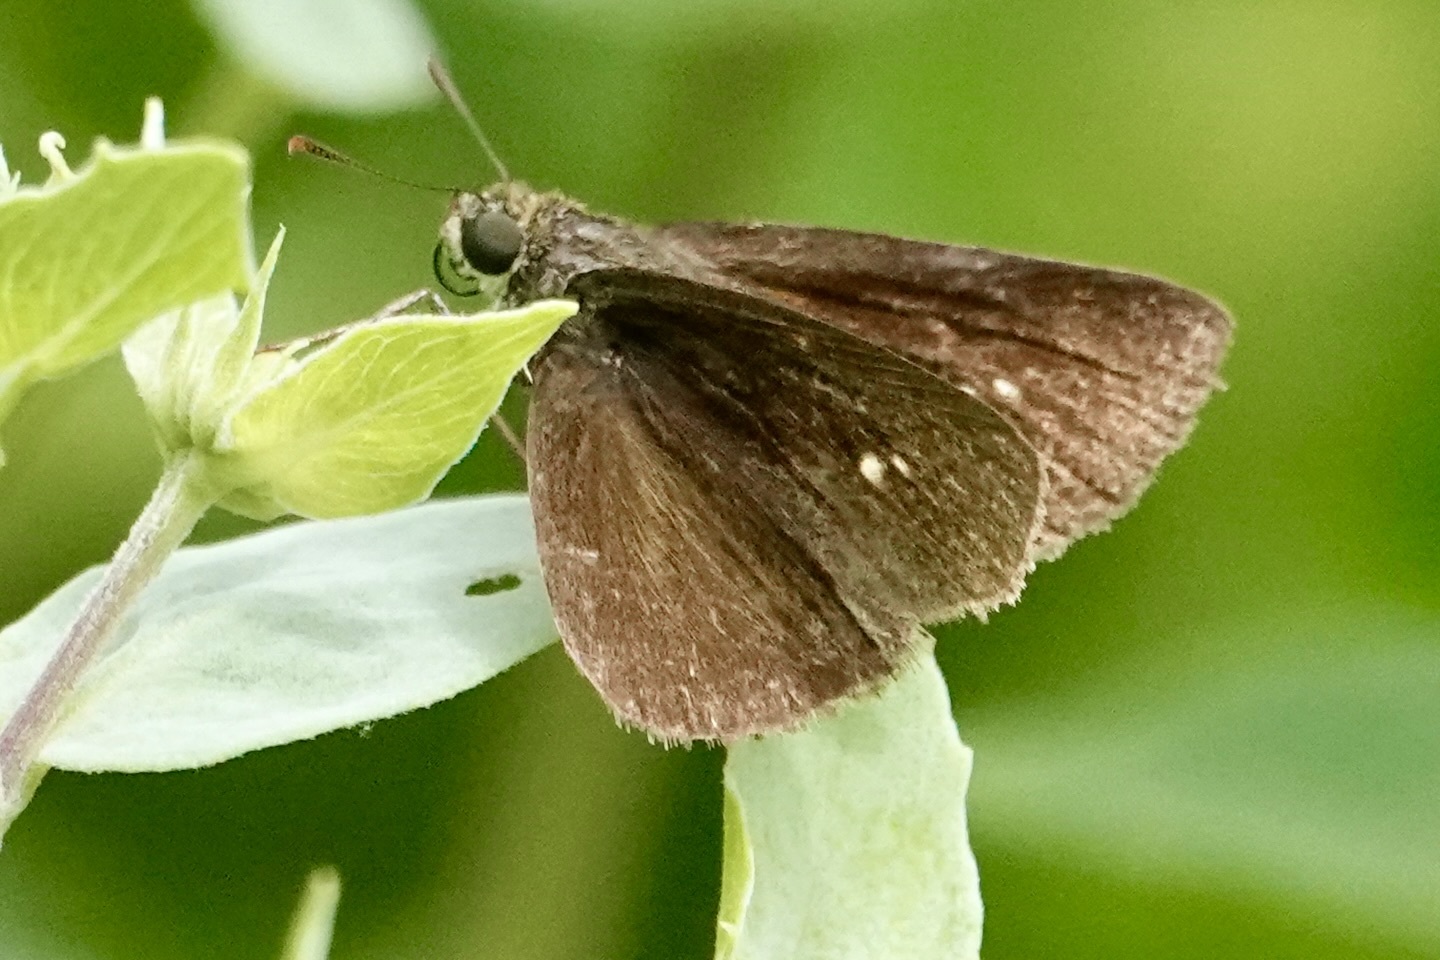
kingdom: Animalia
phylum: Arthropoda
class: Insecta
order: Lepidoptera
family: Hesperiidae
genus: Euphyes
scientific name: Euphyes vestris
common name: Dun skipper
